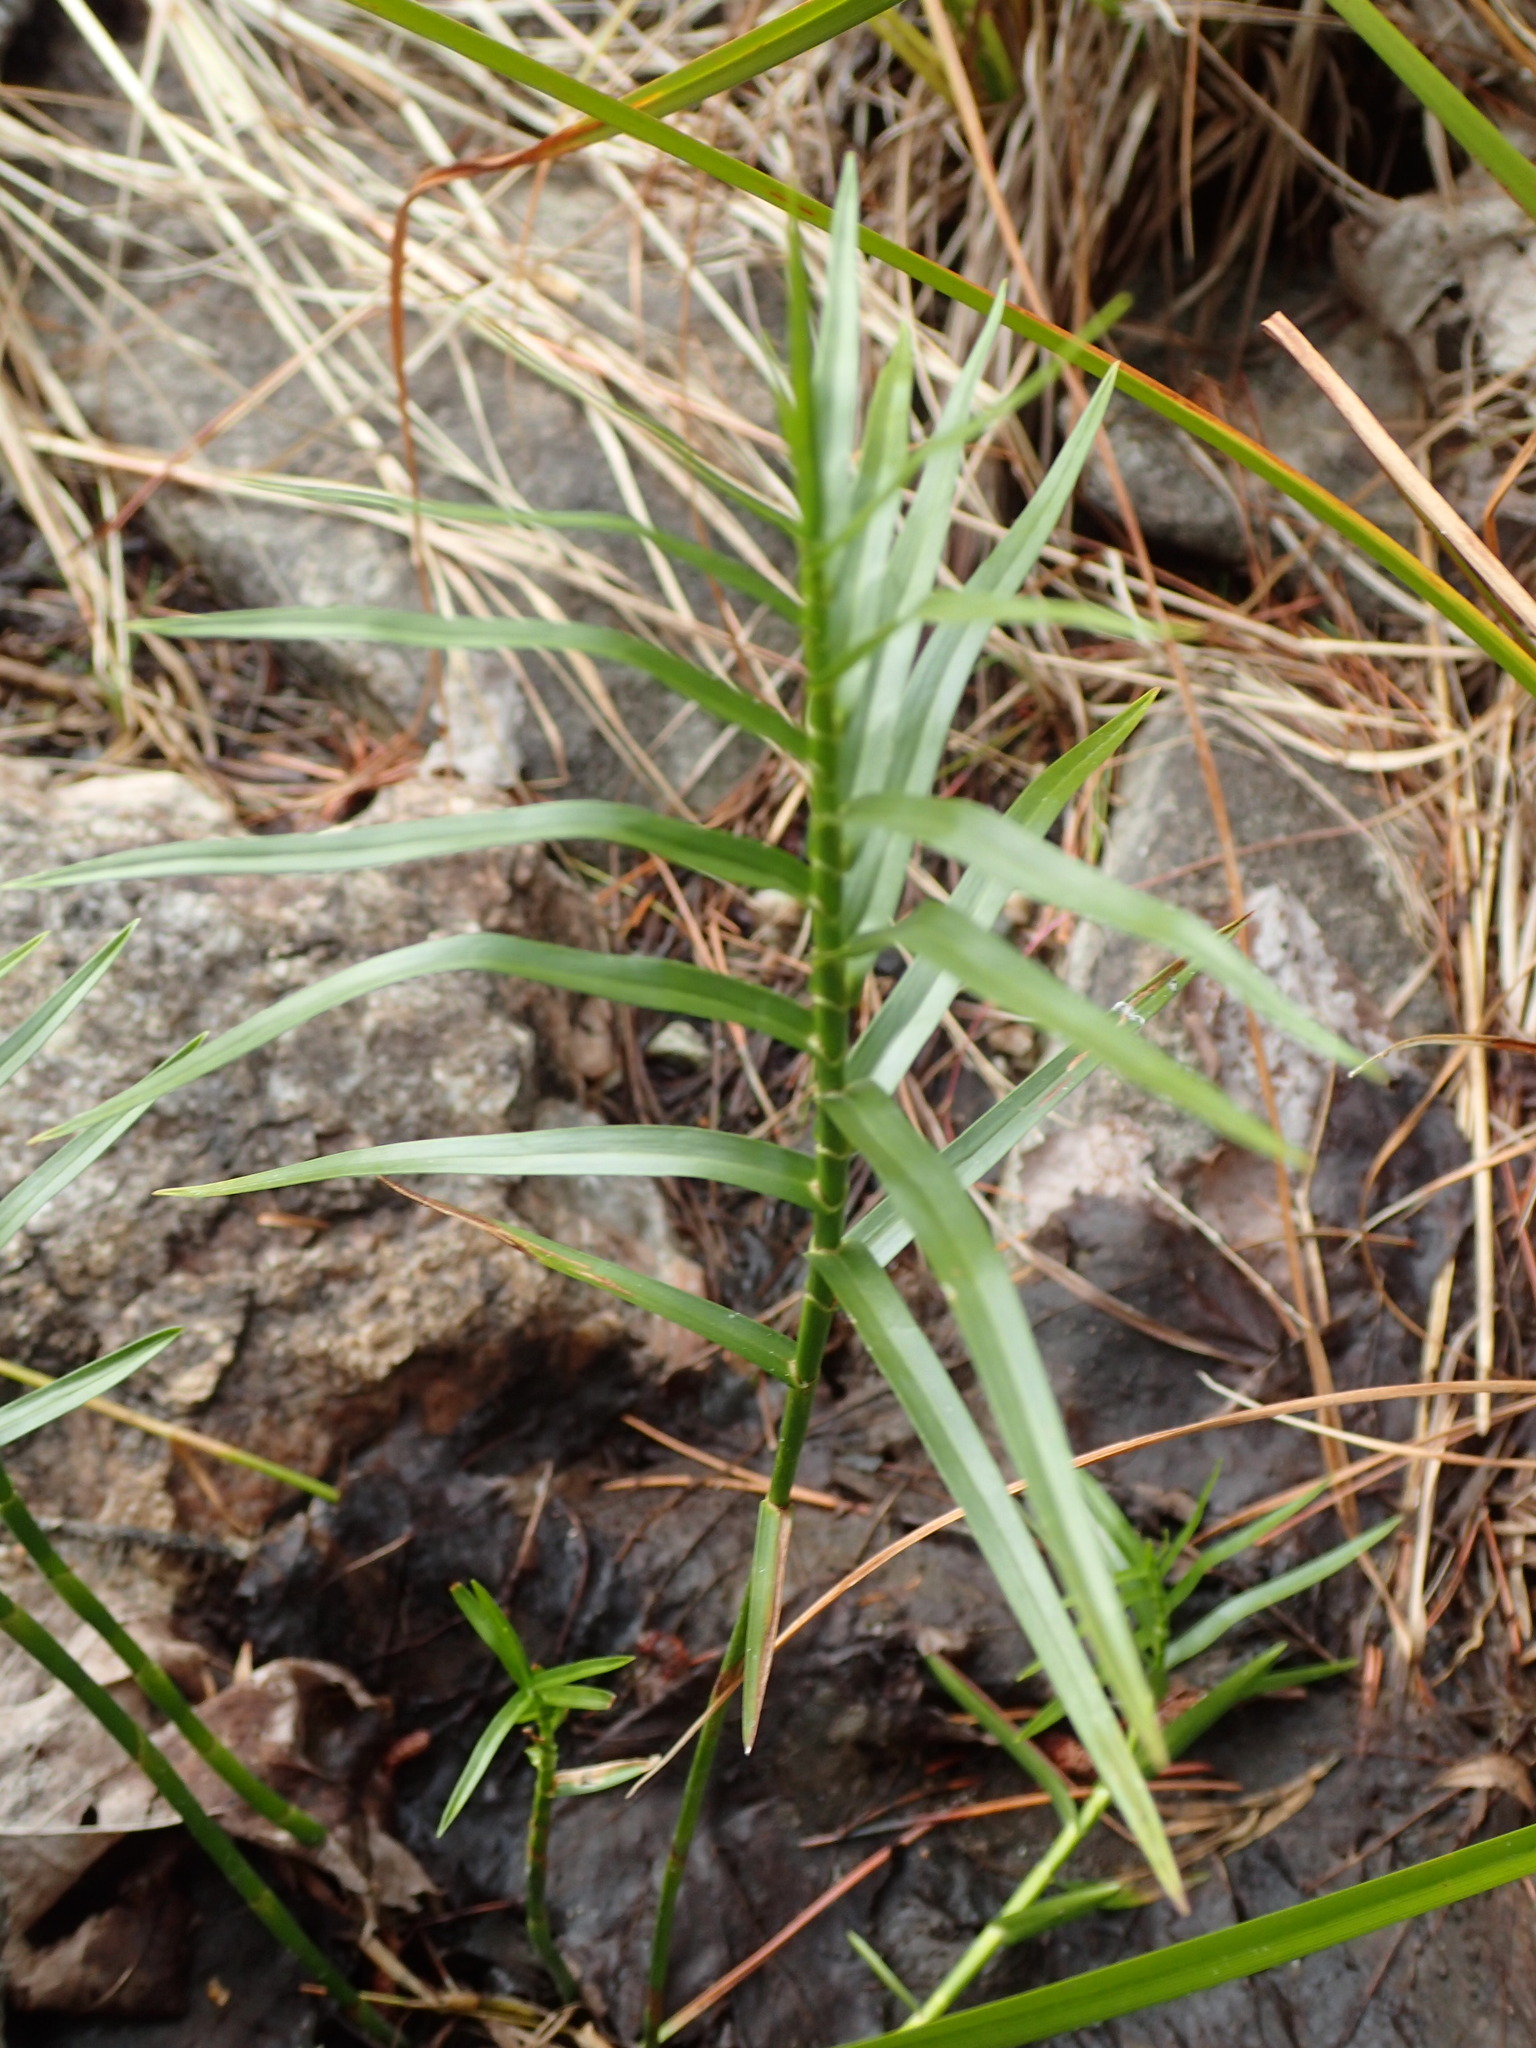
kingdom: Plantae
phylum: Tracheophyta
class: Liliopsida
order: Poales
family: Cyperaceae
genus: Dulichium
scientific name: Dulichium arundinaceum
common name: Three-way sedge
